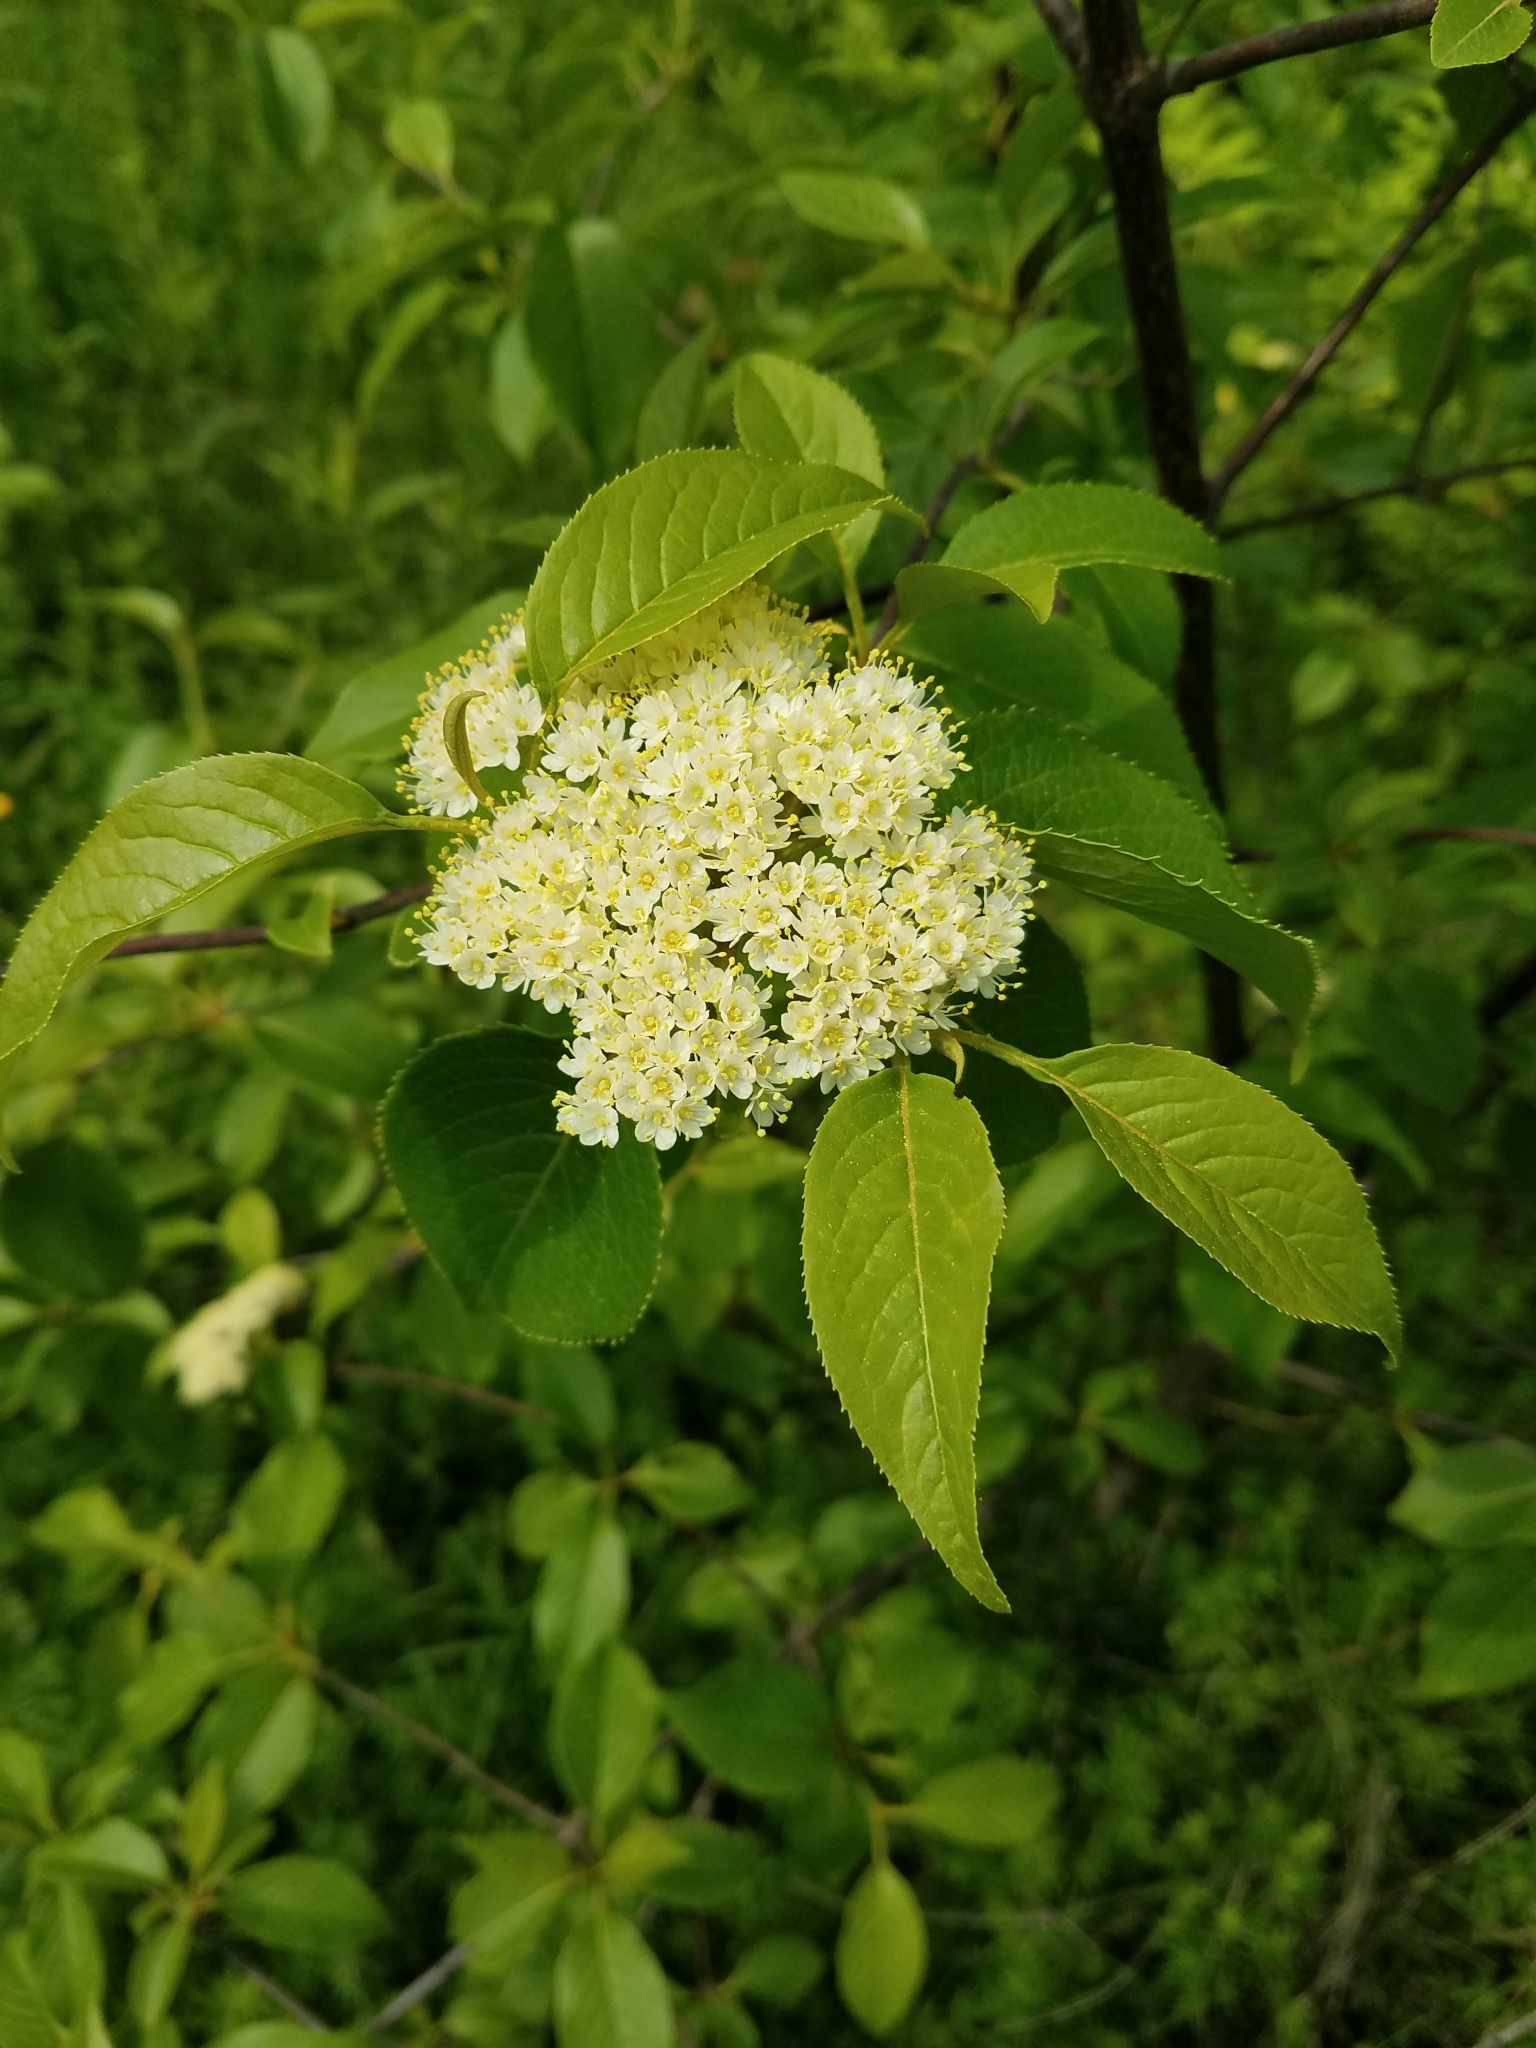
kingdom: Plantae
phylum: Tracheophyta
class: Magnoliopsida
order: Dipsacales
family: Viburnaceae
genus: Viburnum
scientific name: Viburnum lentago
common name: Black haw
